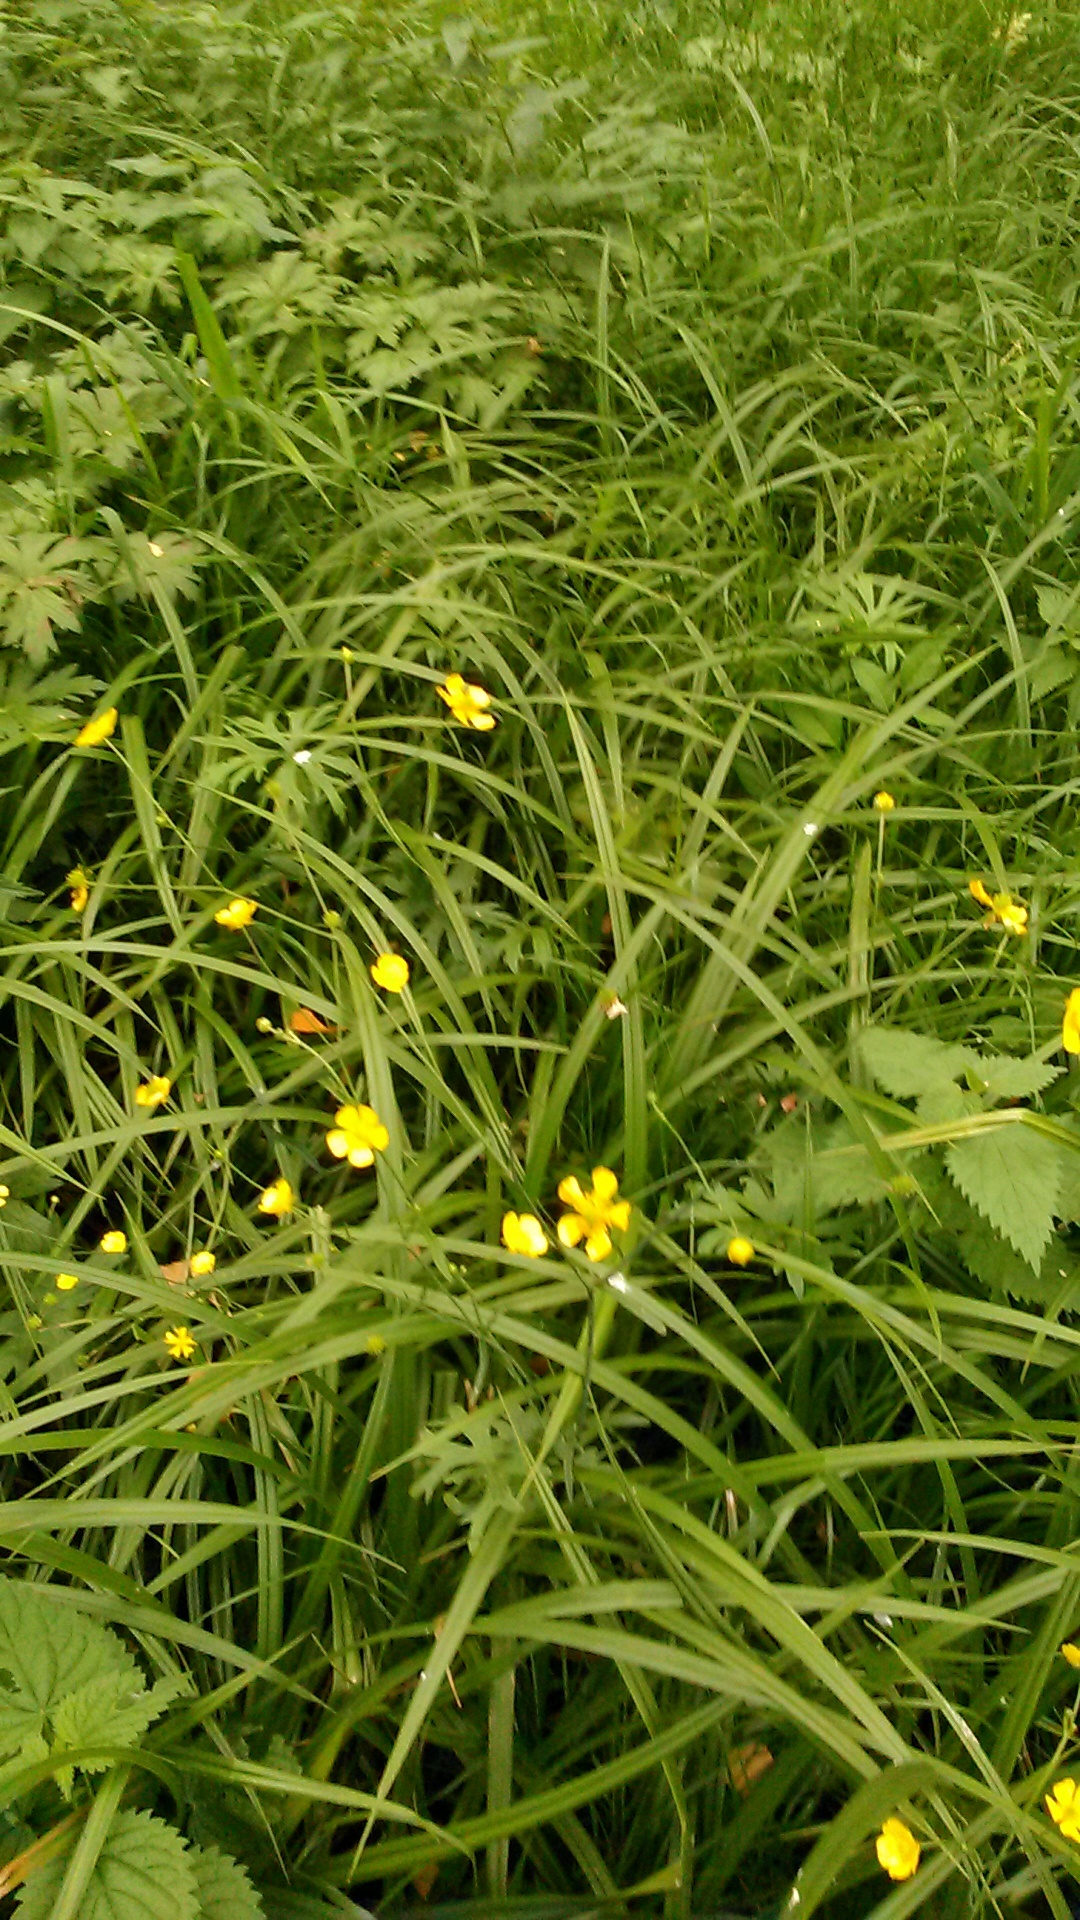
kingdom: Plantae
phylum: Tracheophyta
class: Magnoliopsida
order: Ranunculales
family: Ranunculaceae
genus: Ranunculus
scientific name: Ranunculus acris
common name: Meadow buttercup
